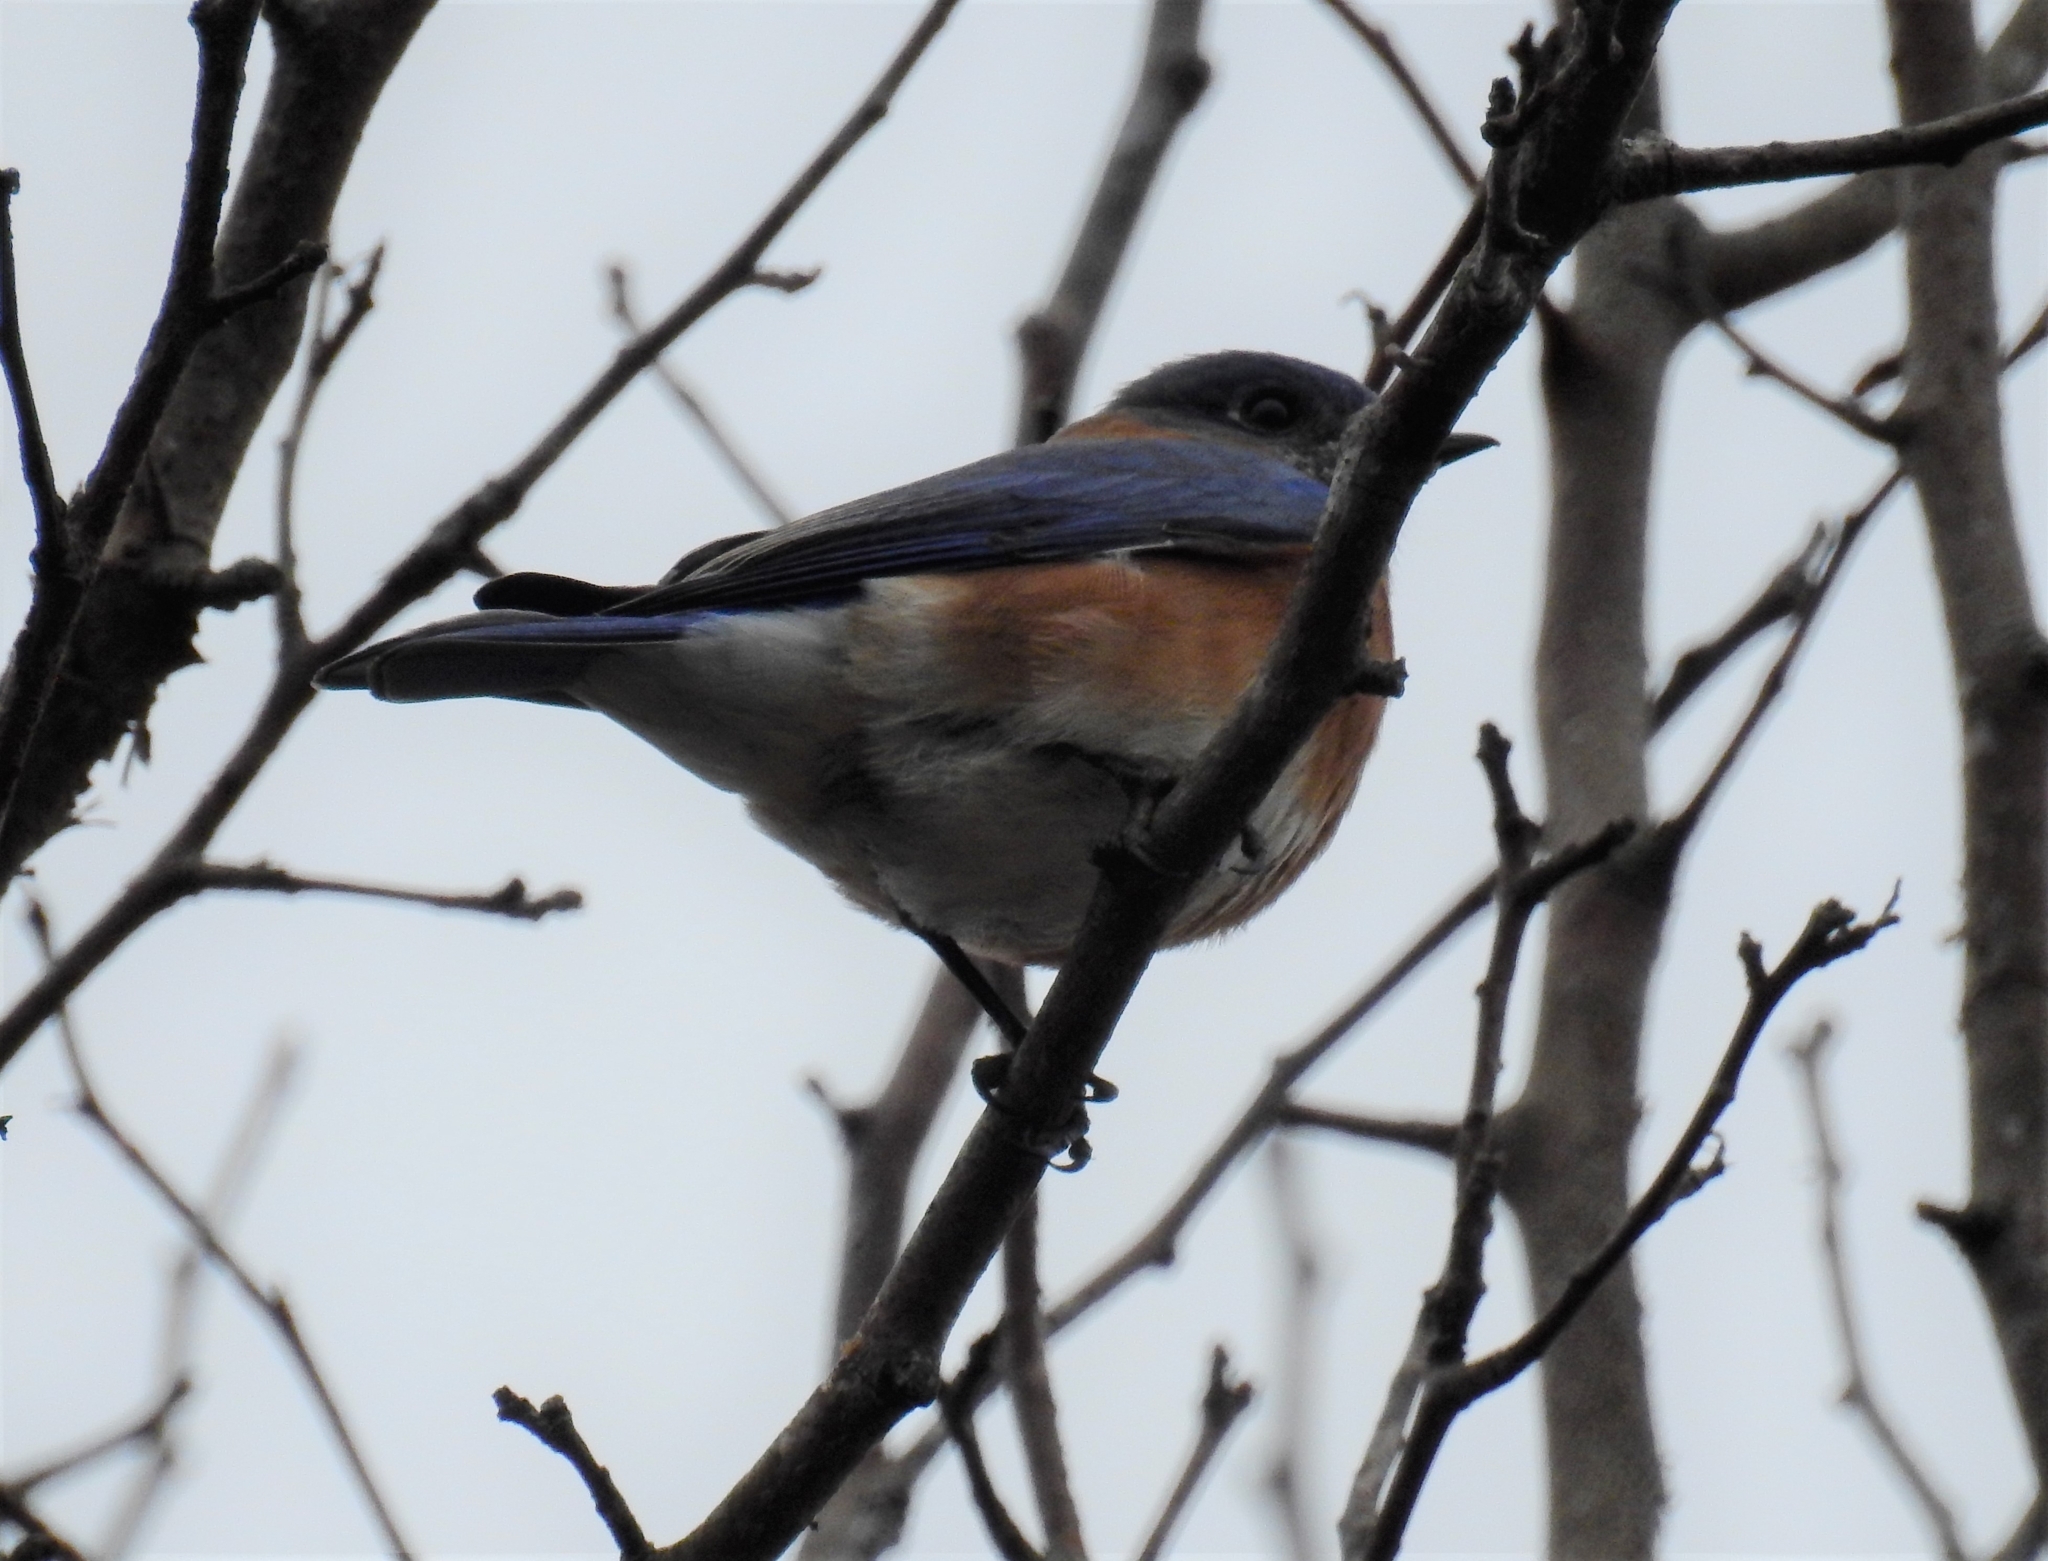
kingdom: Animalia
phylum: Chordata
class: Aves
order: Passeriformes
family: Turdidae
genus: Sialia
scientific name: Sialia sialis
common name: Eastern bluebird
